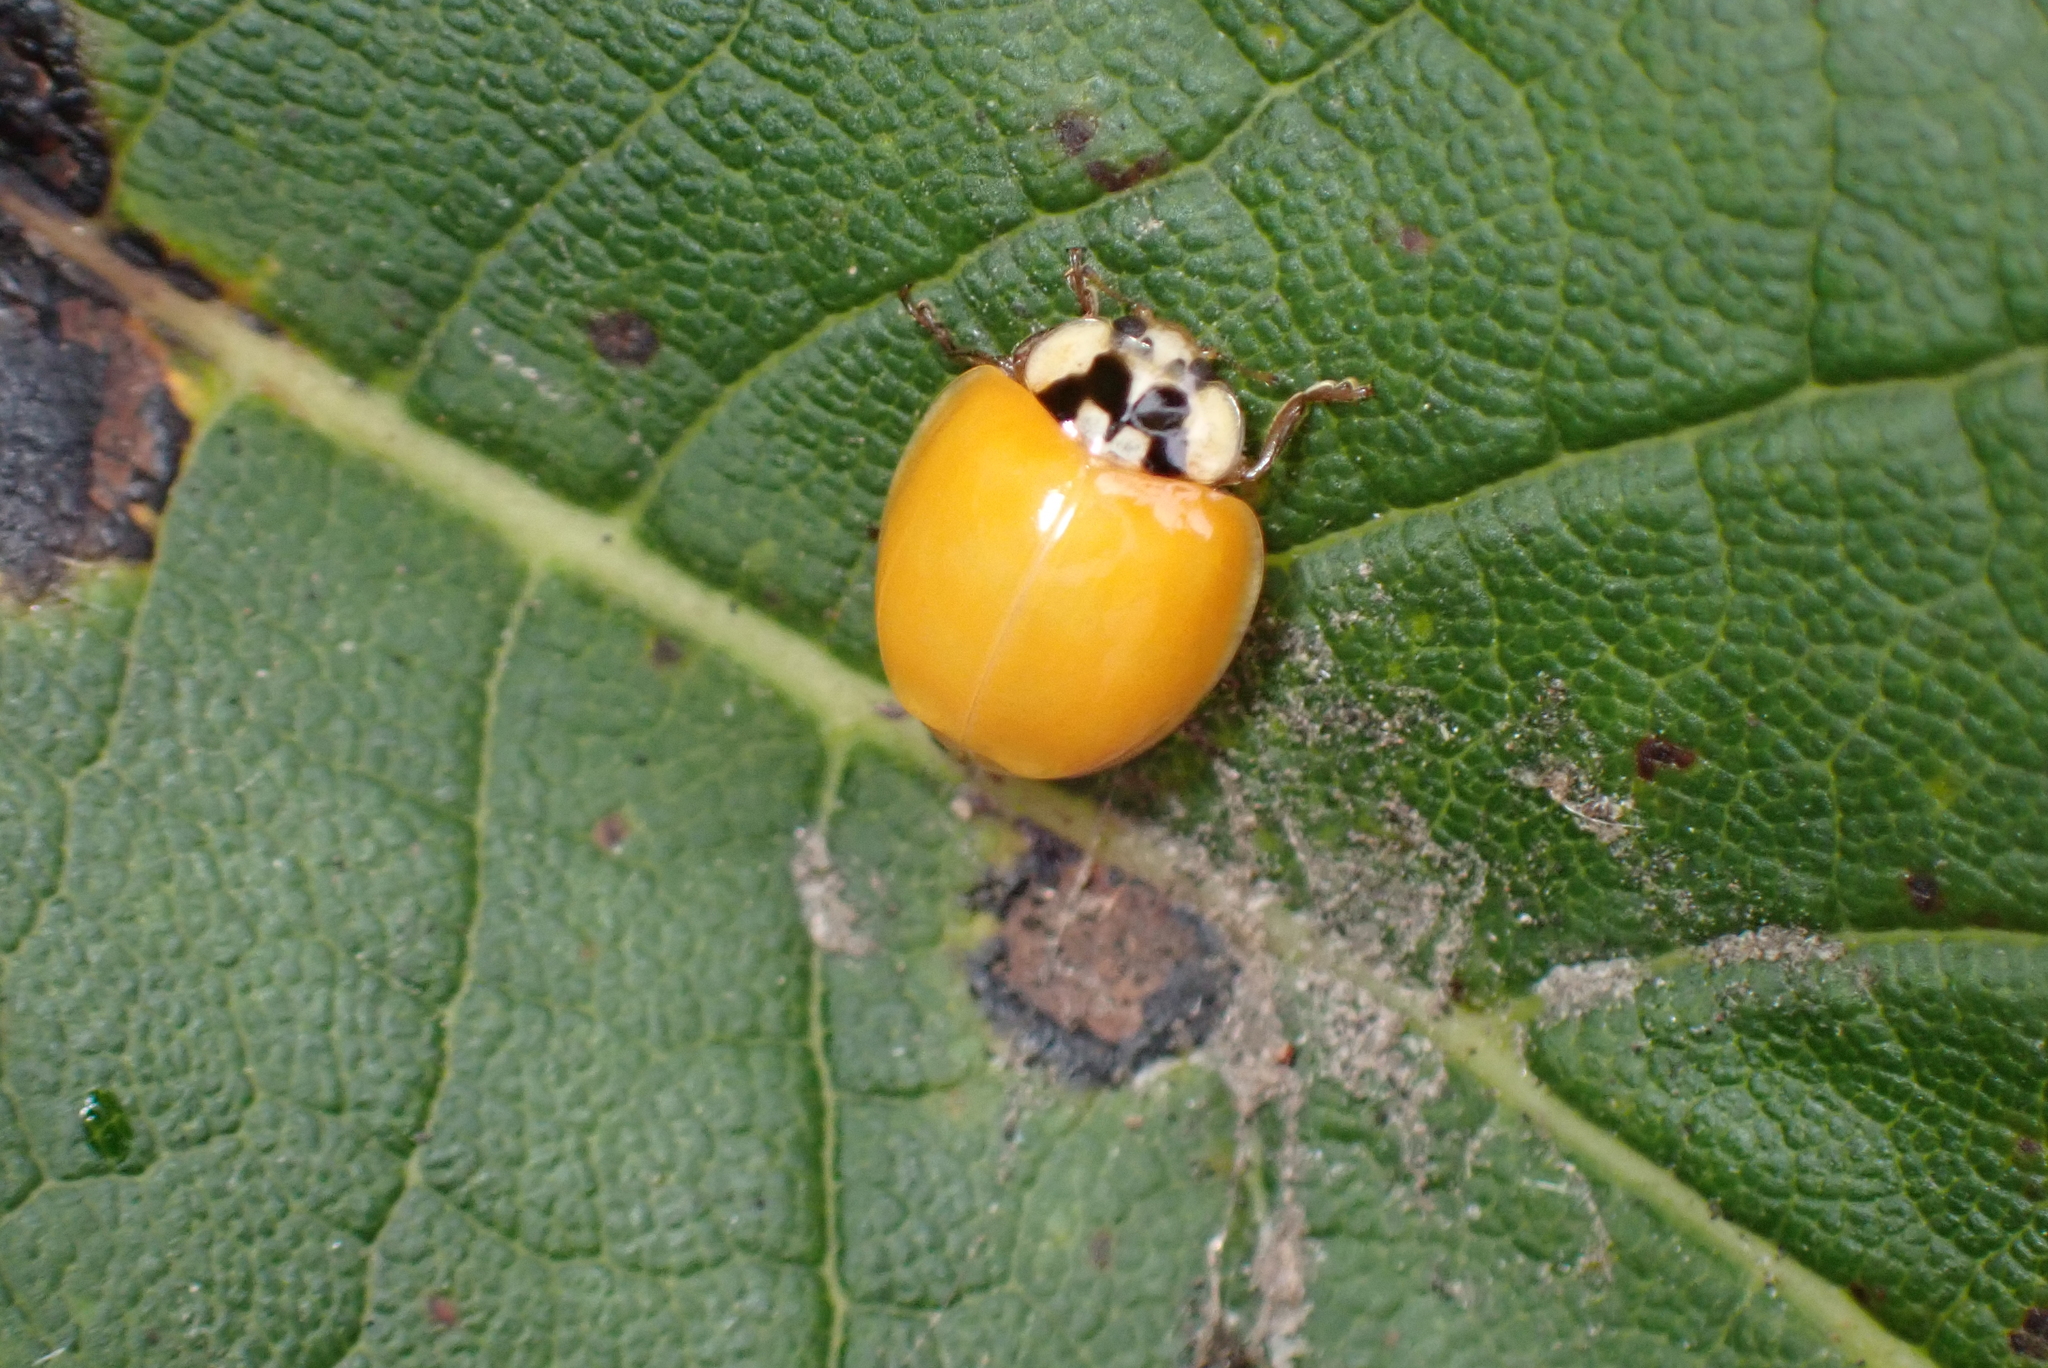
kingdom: Animalia
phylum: Arthropoda
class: Insecta
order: Coleoptera
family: Coccinellidae
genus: Harmonia
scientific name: Harmonia axyridis
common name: Harlequin ladybird
